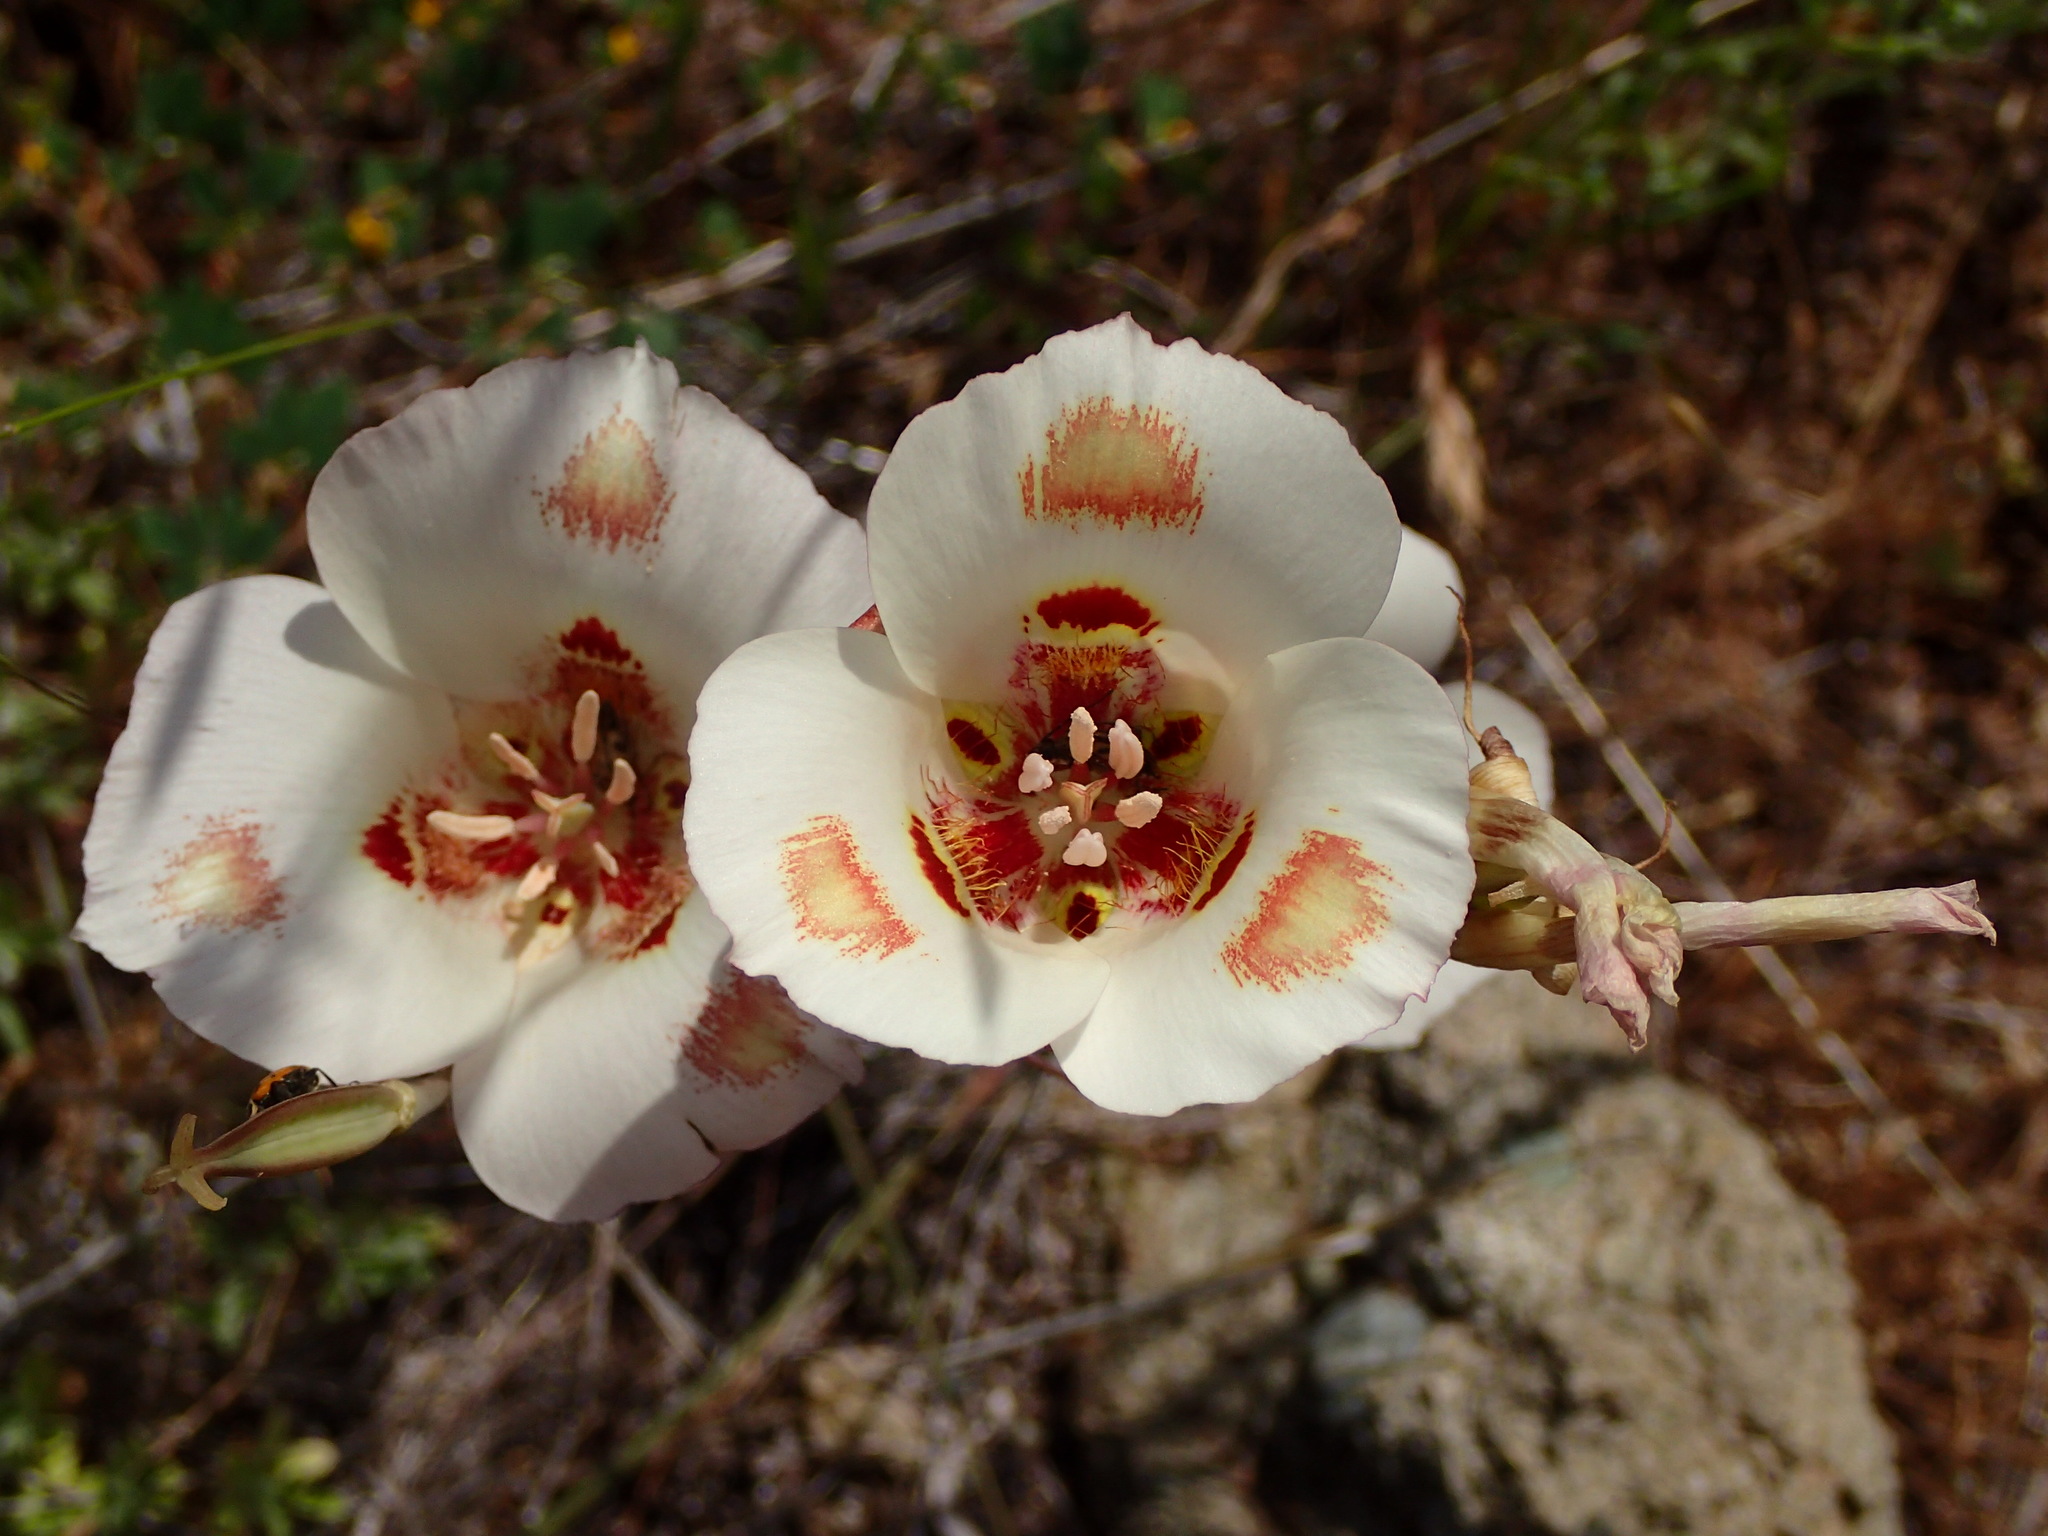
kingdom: Plantae
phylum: Tracheophyta
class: Liliopsida
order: Liliales
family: Liliaceae
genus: Calochortus
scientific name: Calochortus venustus
